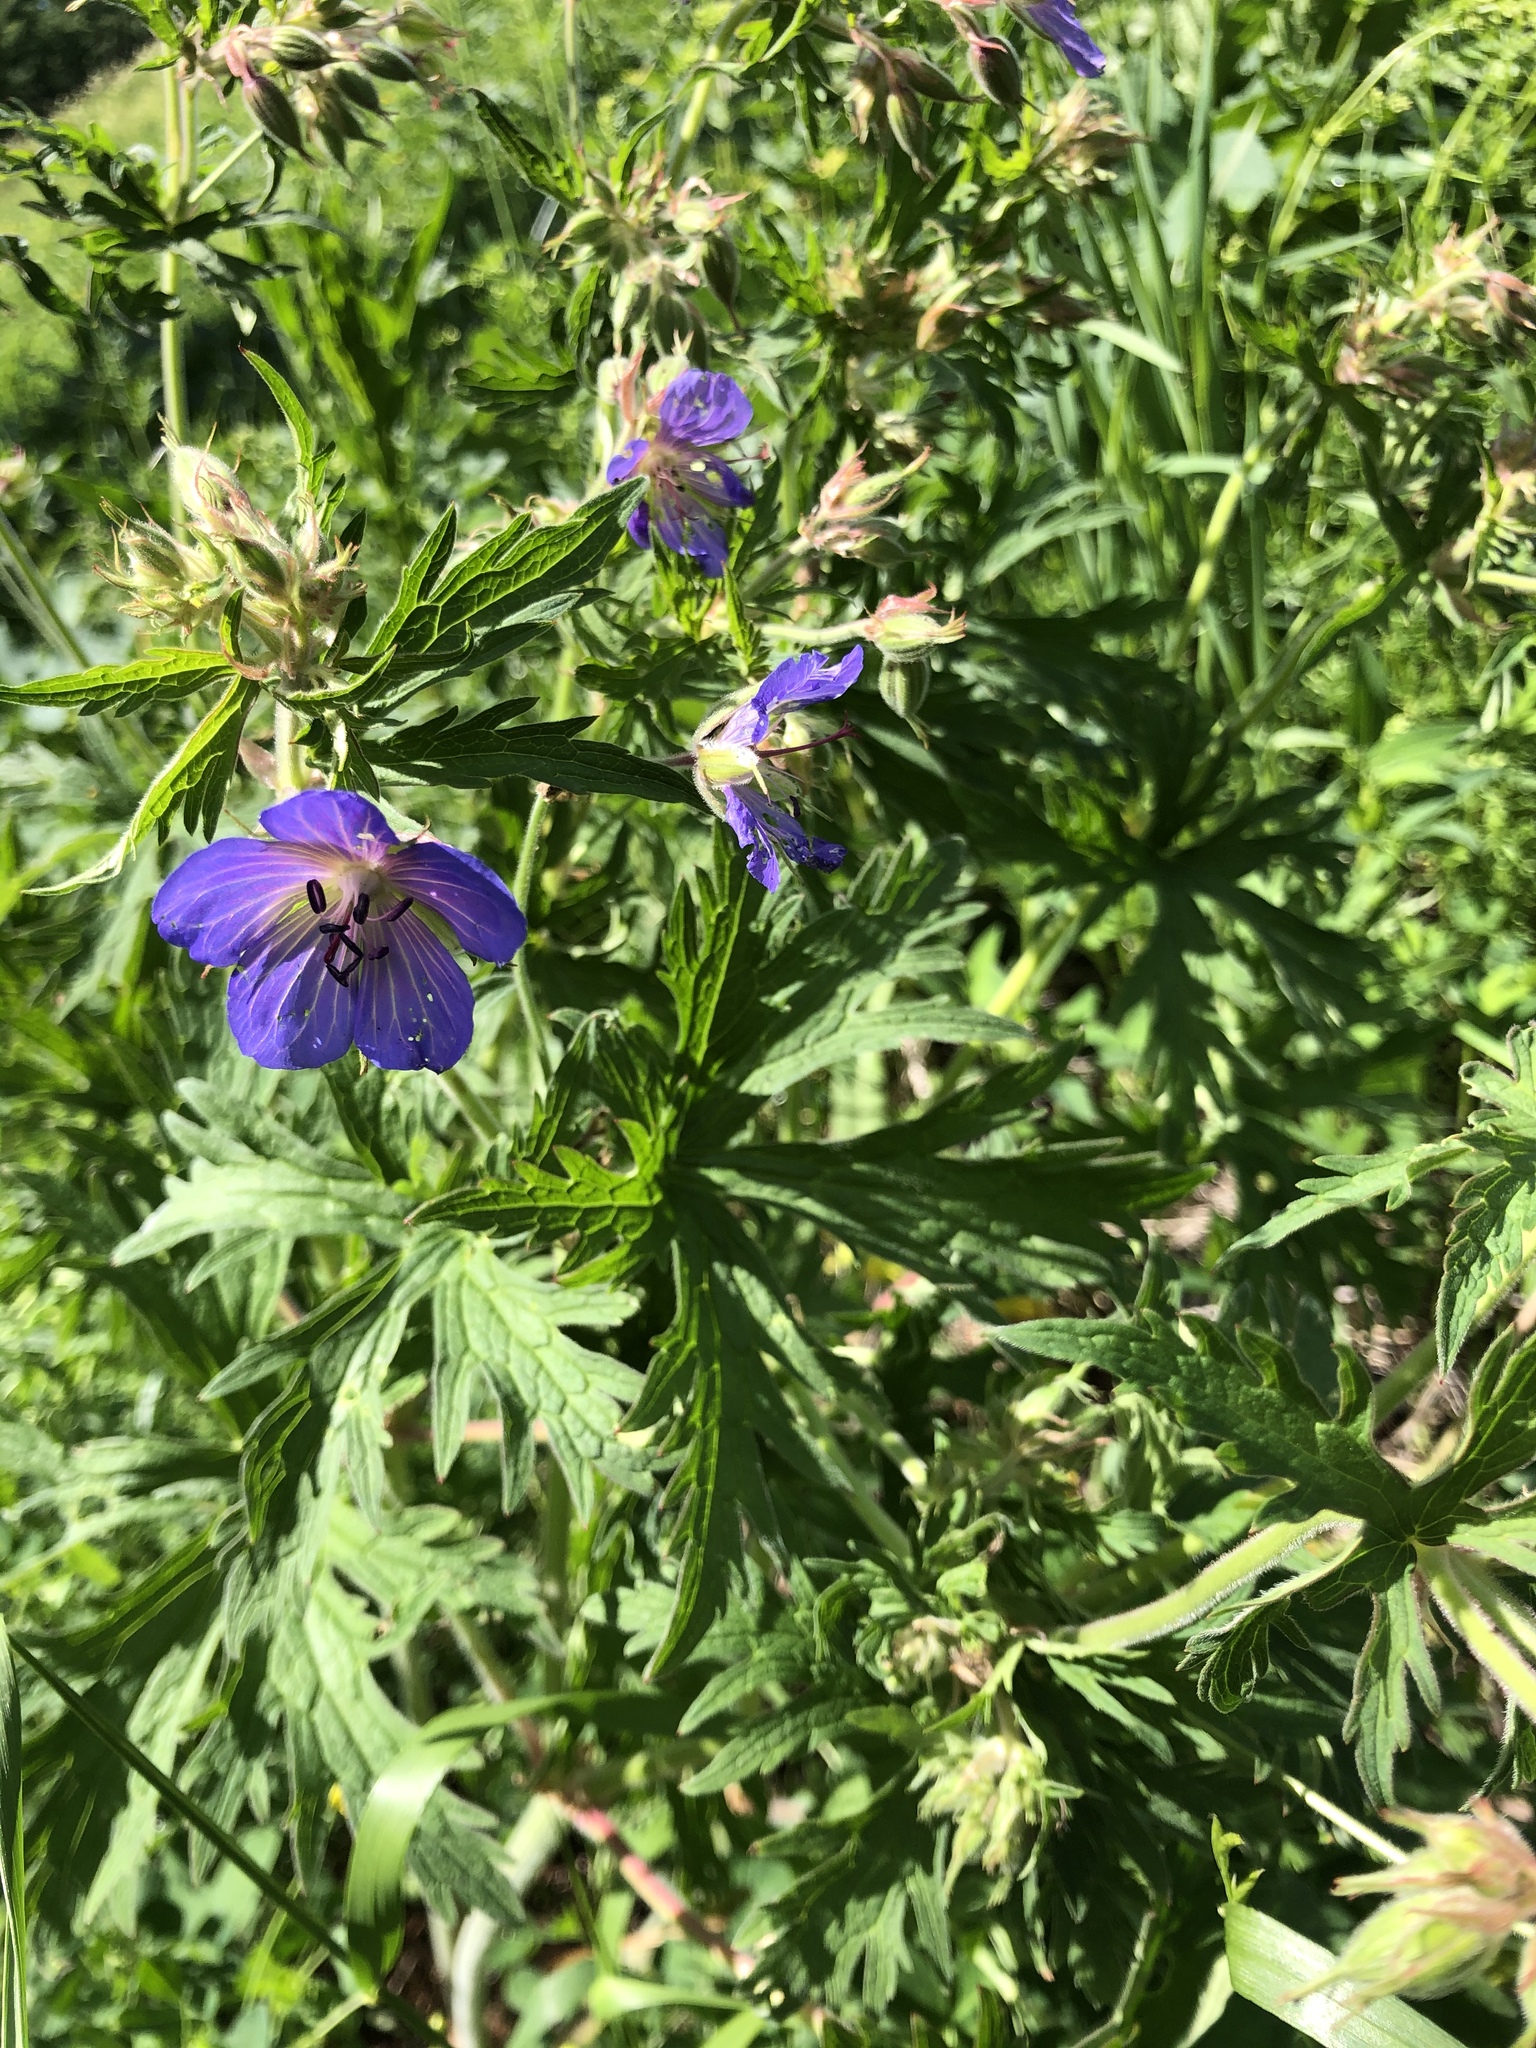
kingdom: Plantae
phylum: Tracheophyta
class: Magnoliopsida
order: Geraniales
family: Geraniaceae
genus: Geranium
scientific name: Geranium pratense
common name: Meadow crane's-bill
